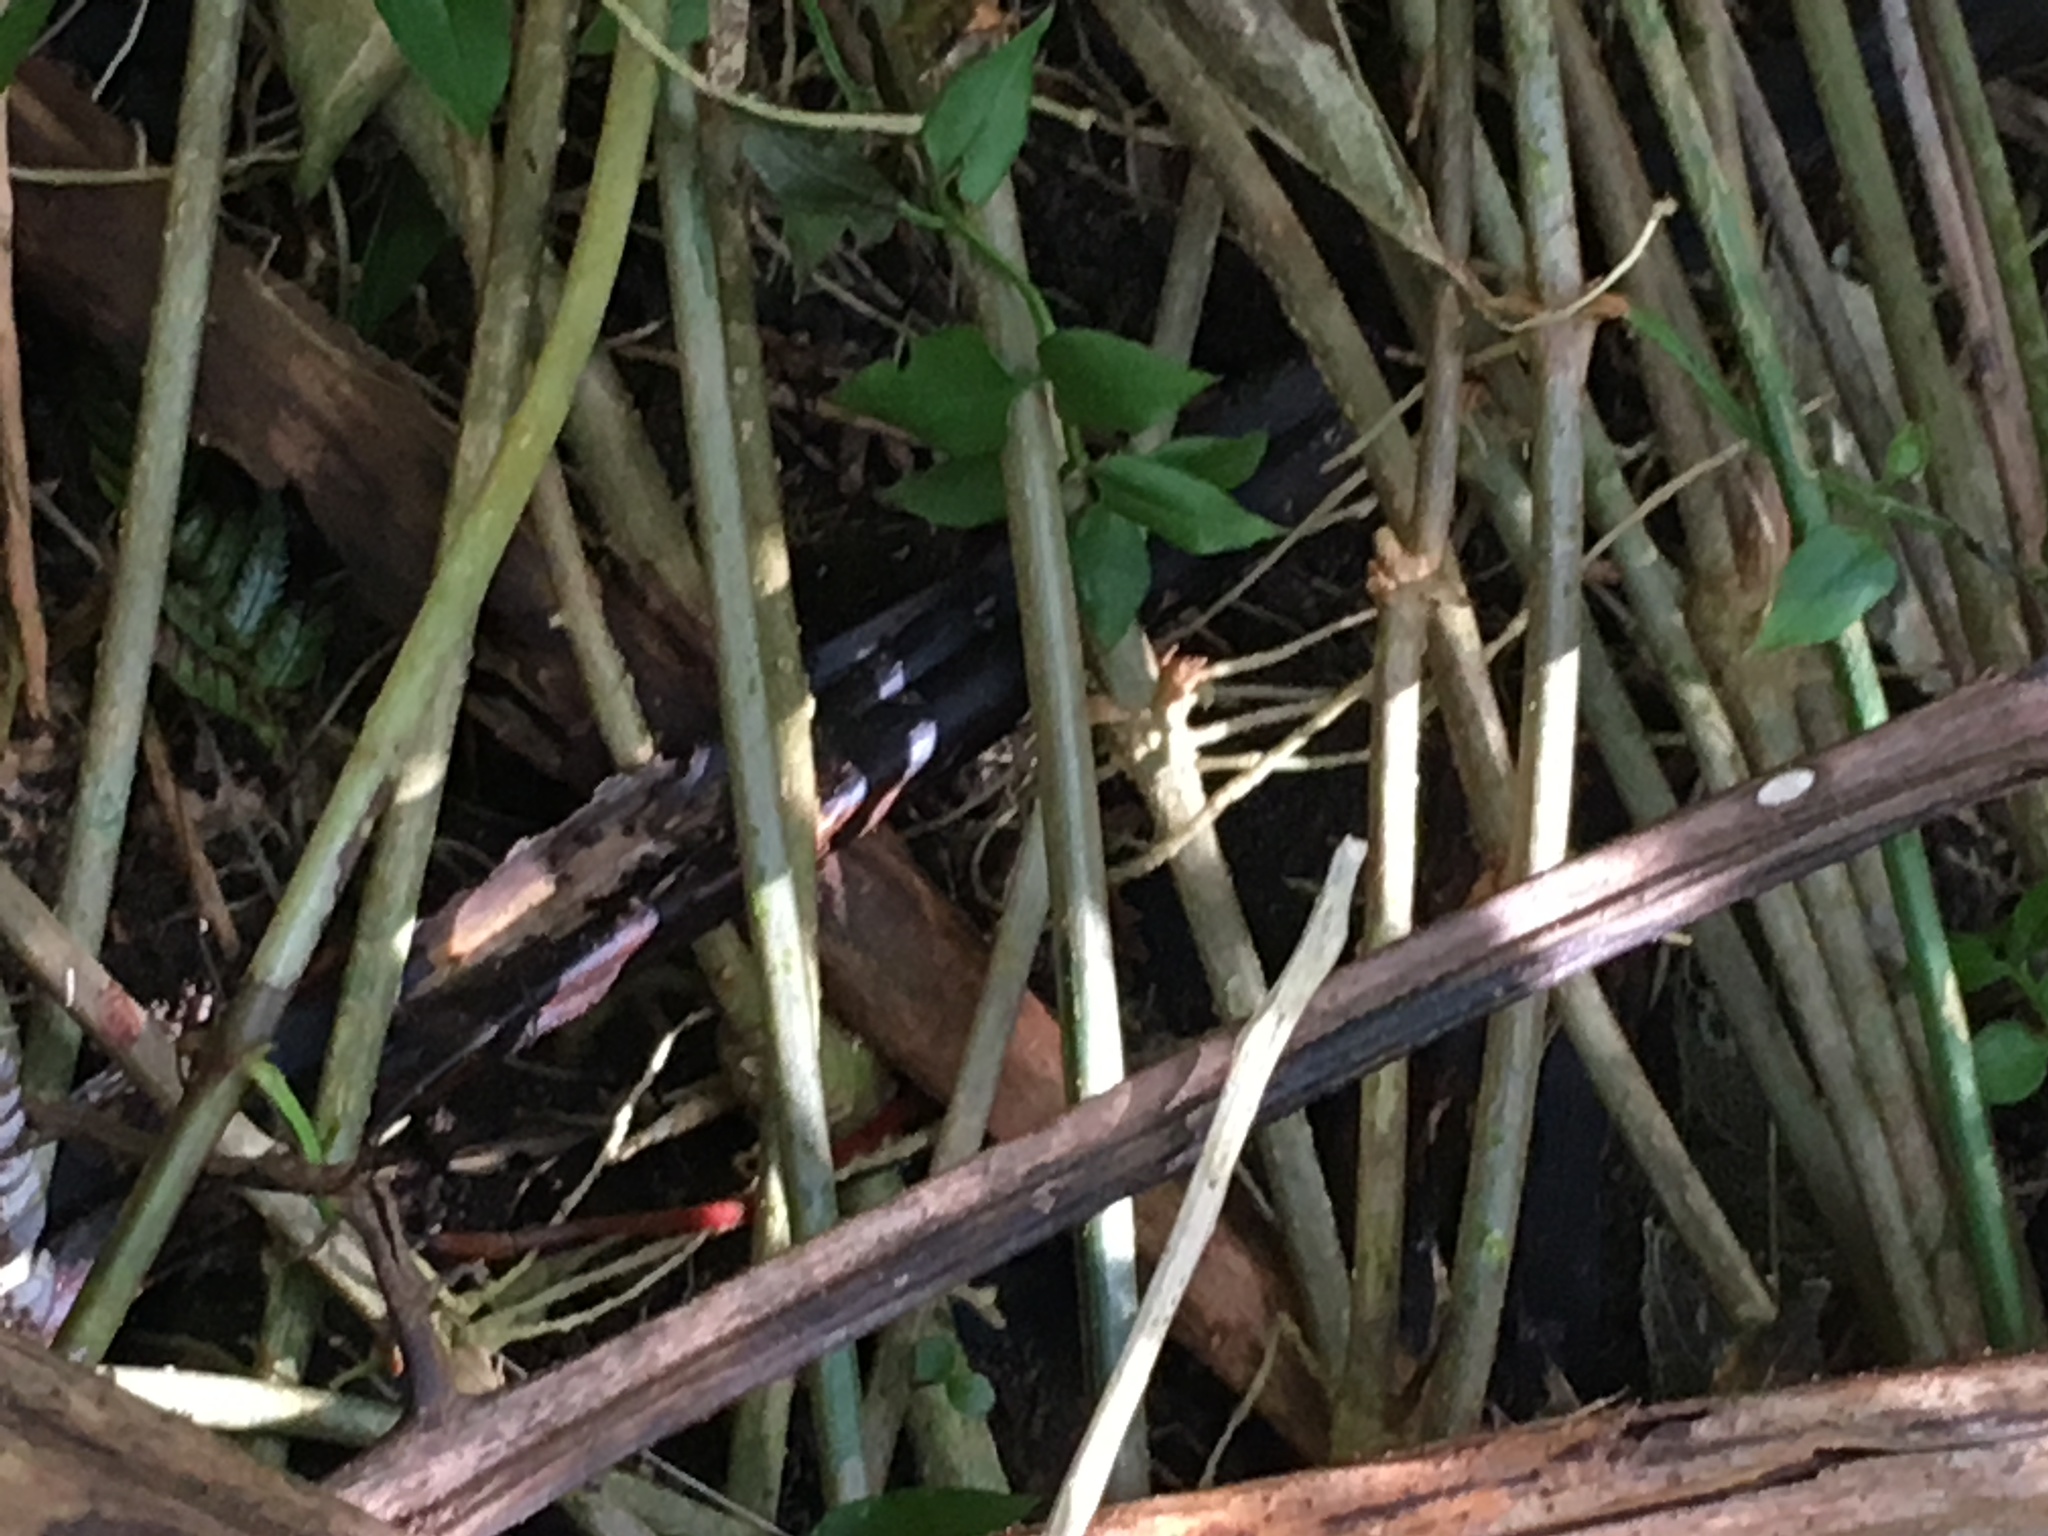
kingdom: Plantae
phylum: Tracheophyta
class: Magnoliopsida
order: Lamiales
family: Oleaceae
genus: Jasminum
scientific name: Jasminum polyanthum
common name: Pink jasmine
